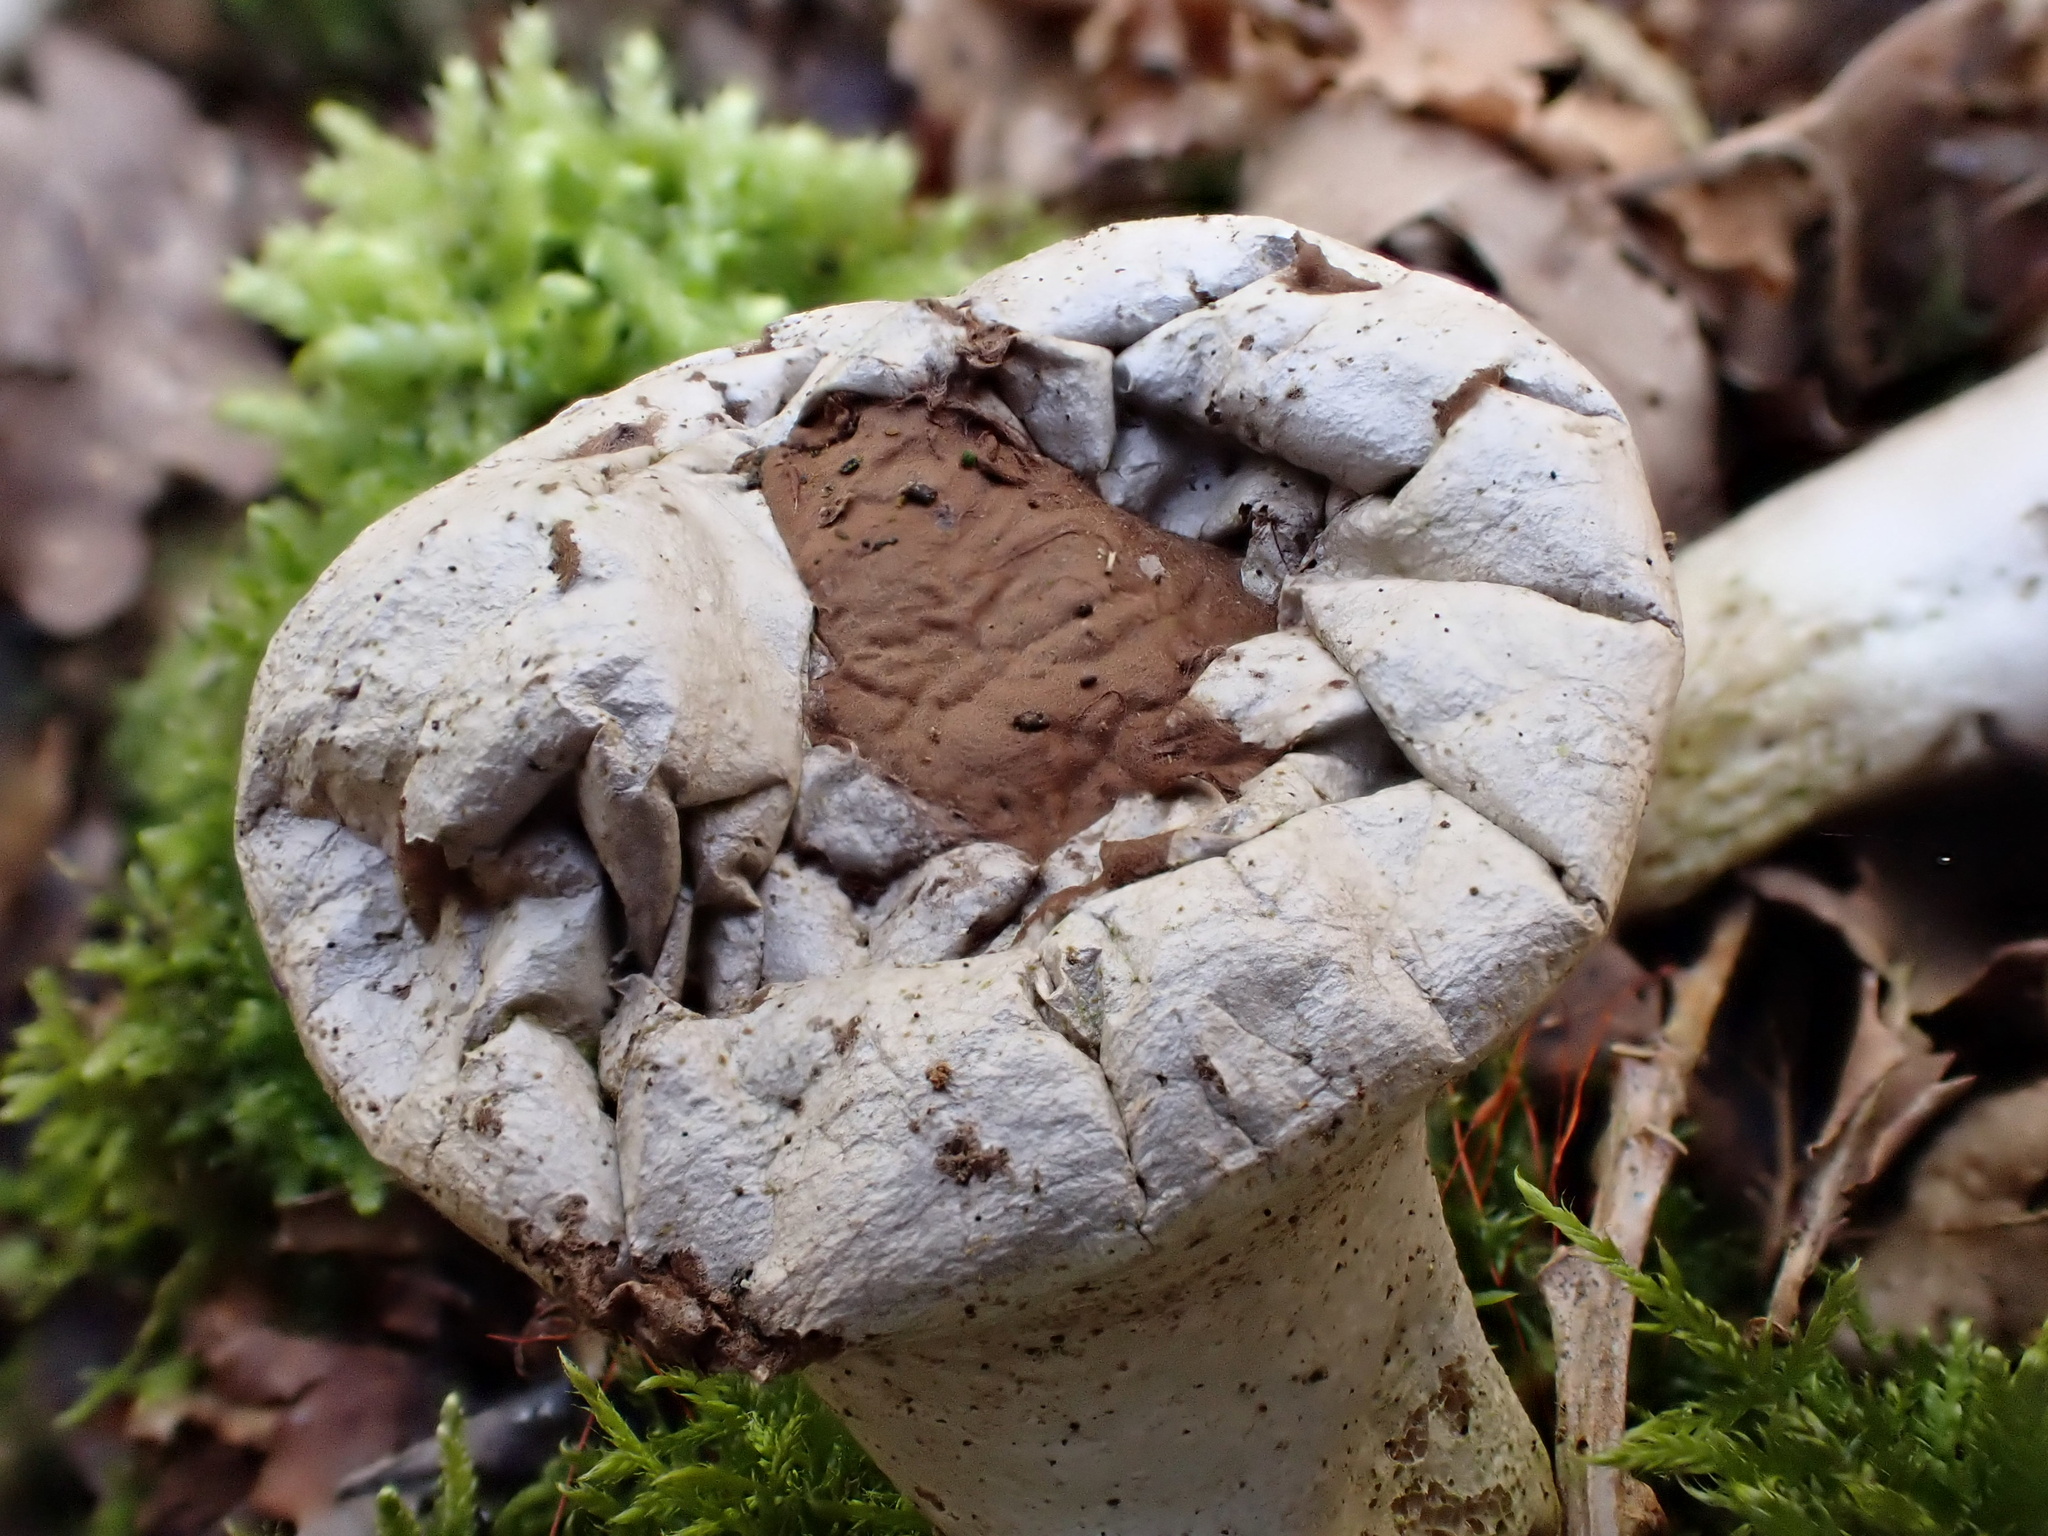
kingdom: Fungi
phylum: Basidiomycota
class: Agaricomycetes
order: Agaricales
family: Lycoperdaceae
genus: Lycoperdon
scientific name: Lycoperdon excipuliforme
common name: Pestle puffball
